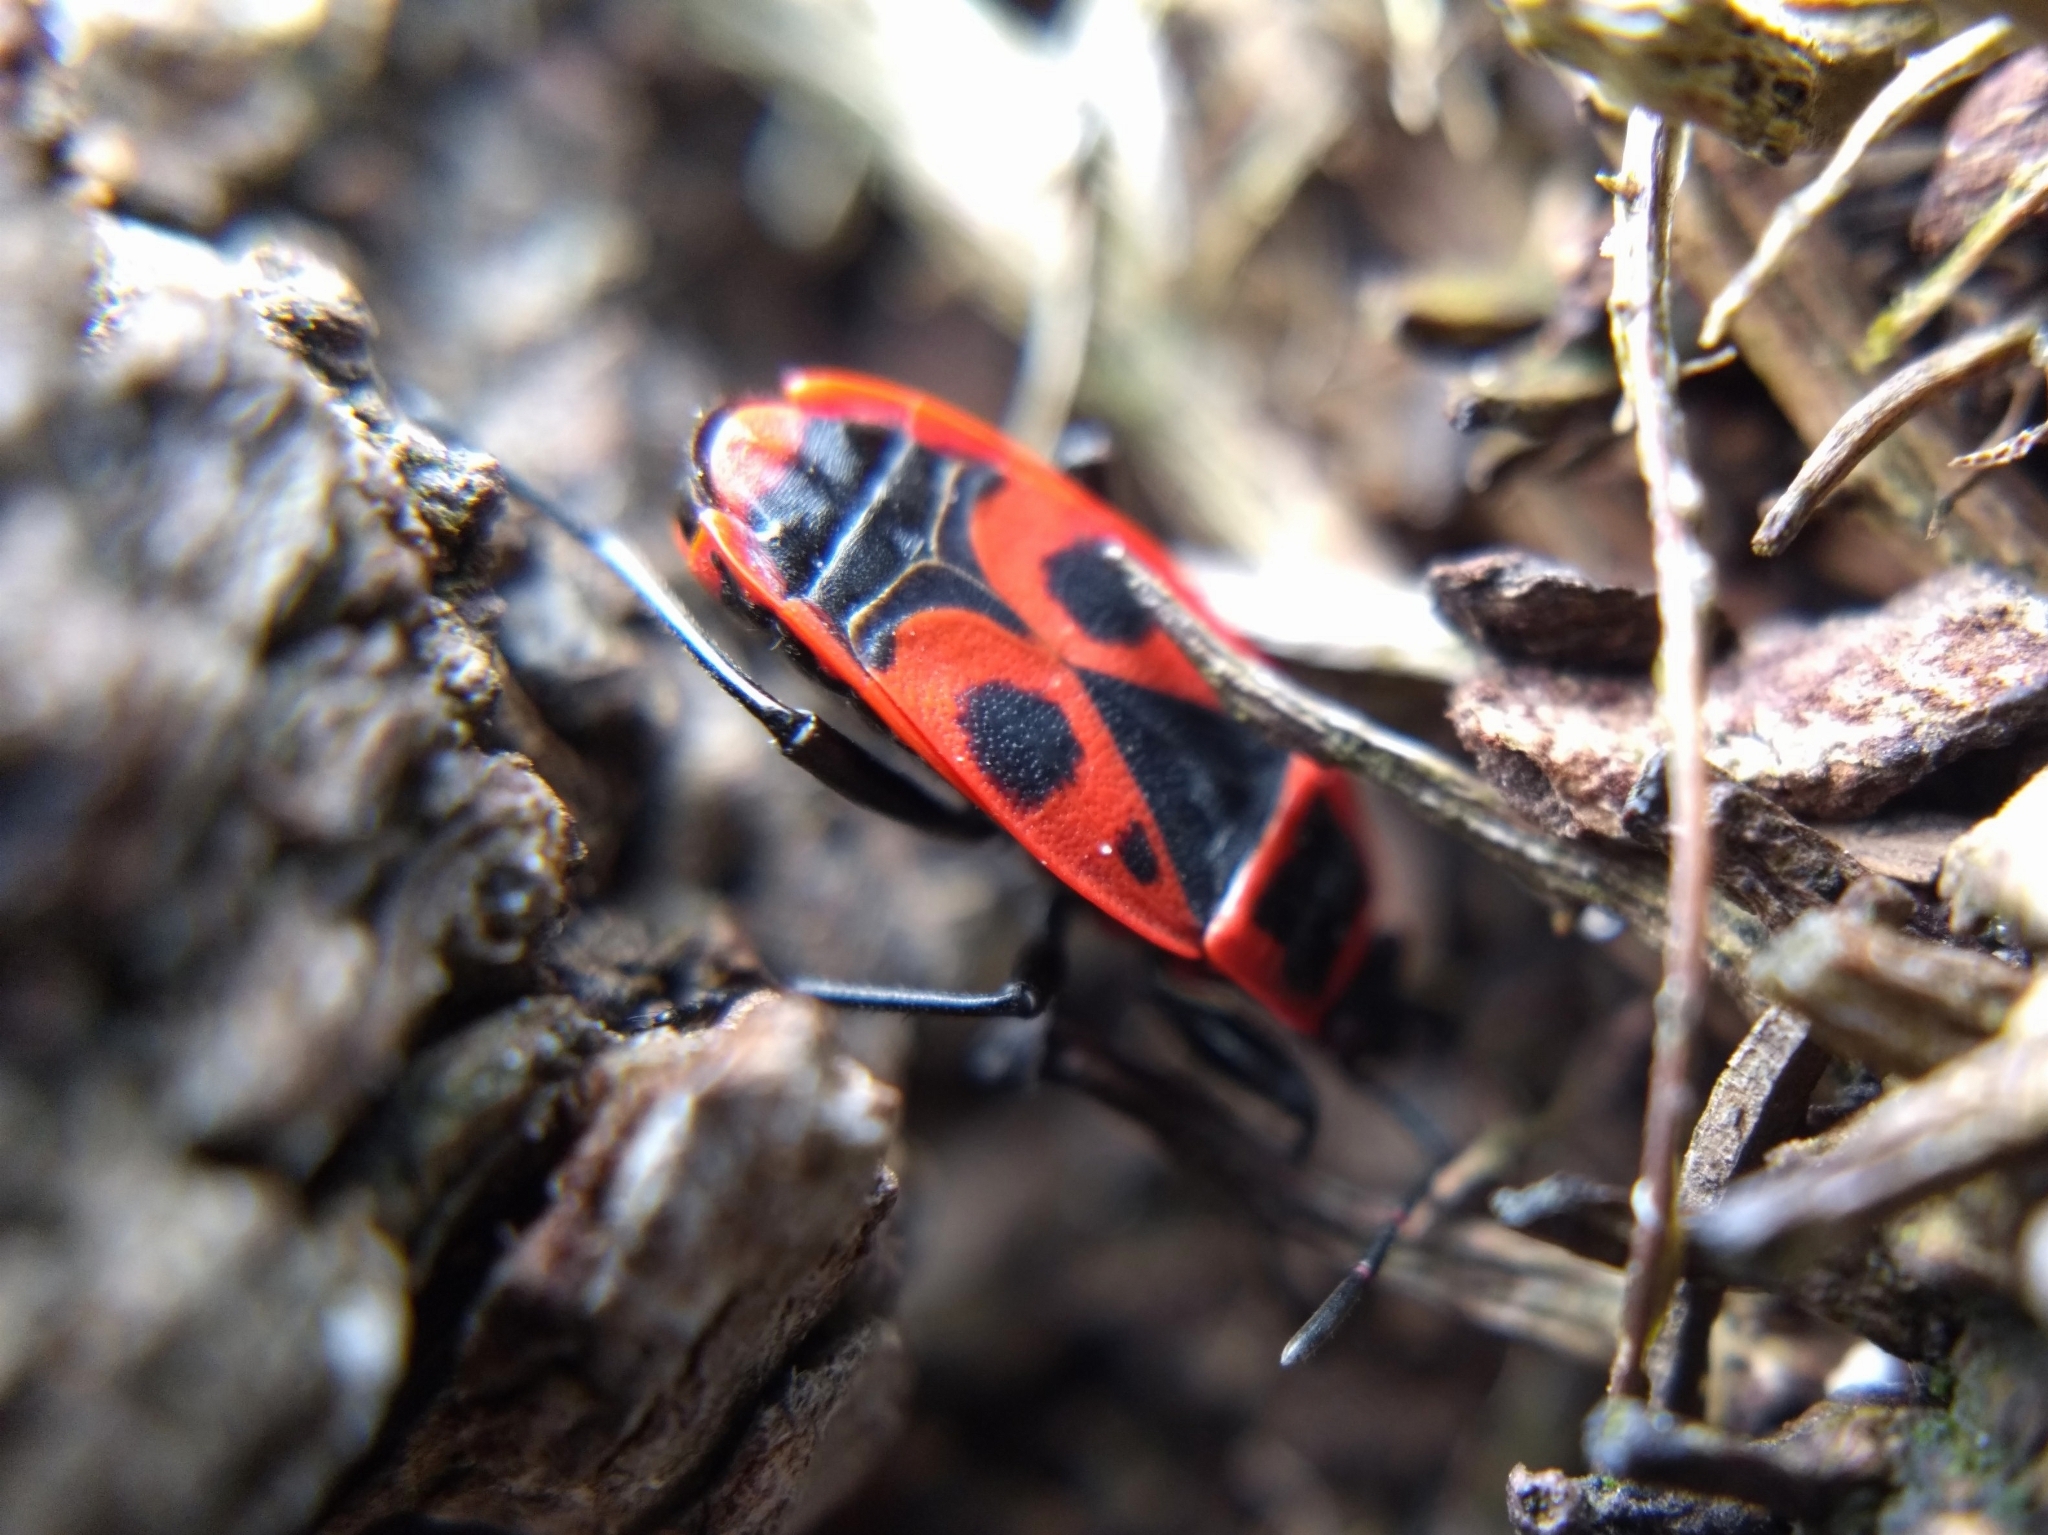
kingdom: Animalia
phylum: Arthropoda
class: Insecta
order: Hemiptera
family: Pyrrhocoridae
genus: Pyrrhocoris
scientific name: Pyrrhocoris apterus
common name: Firebug
